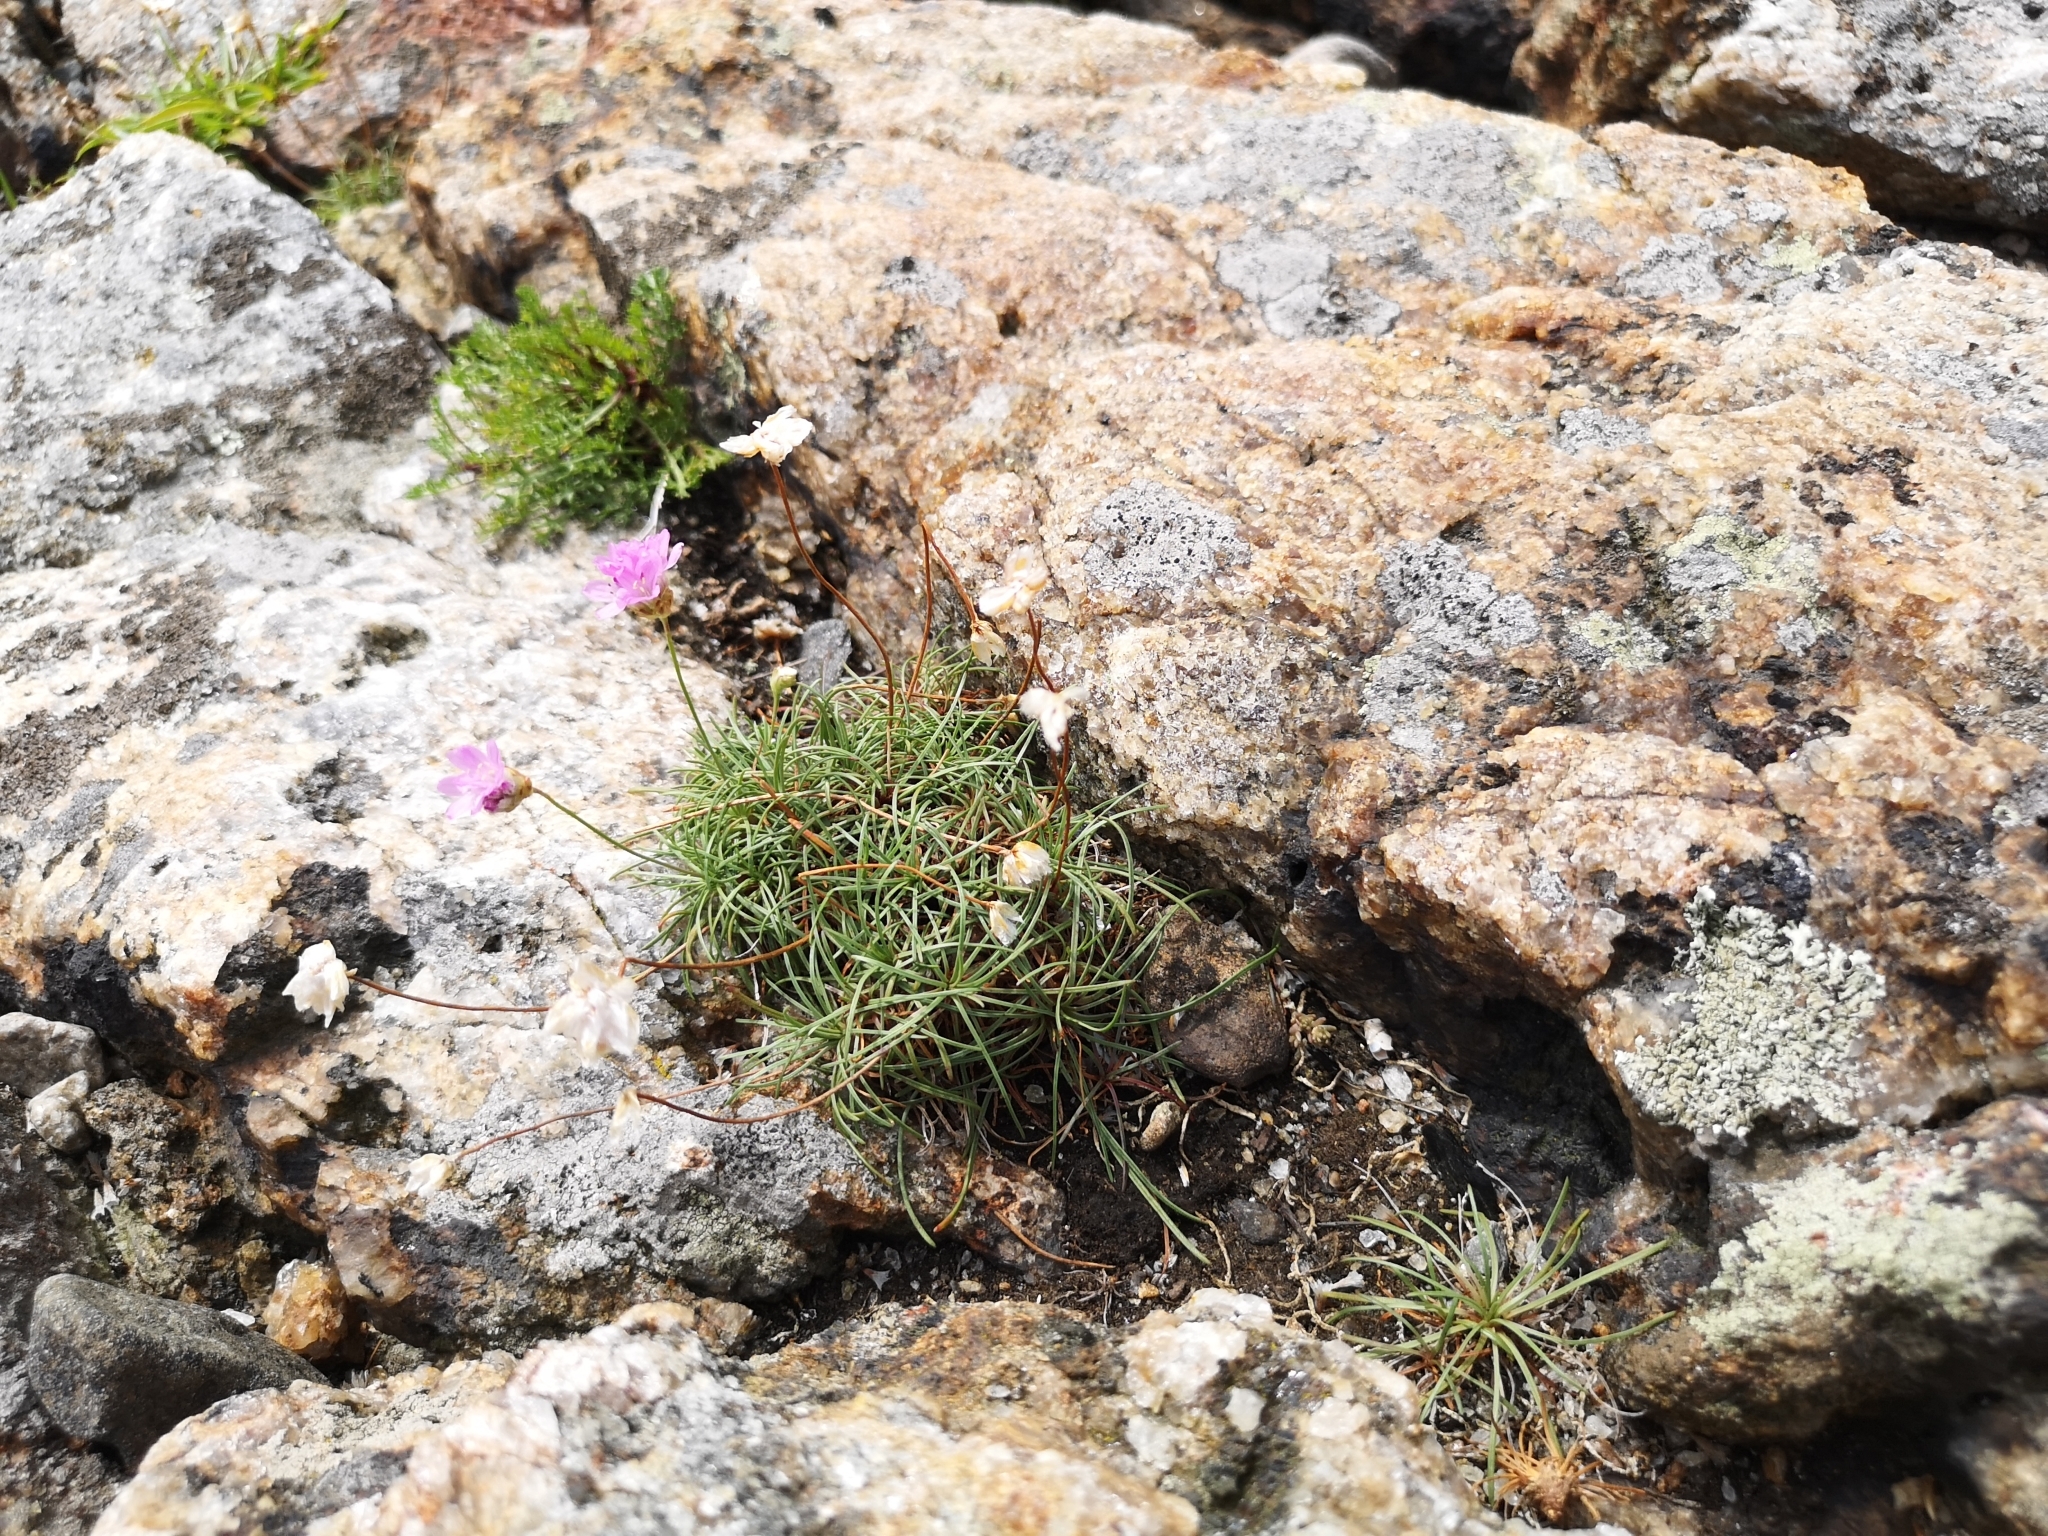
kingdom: Plantae
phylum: Tracheophyta
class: Magnoliopsida
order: Caryophyllales
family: Plumbaginaceae
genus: Armeria
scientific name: Armeria maritima
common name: Thrift
